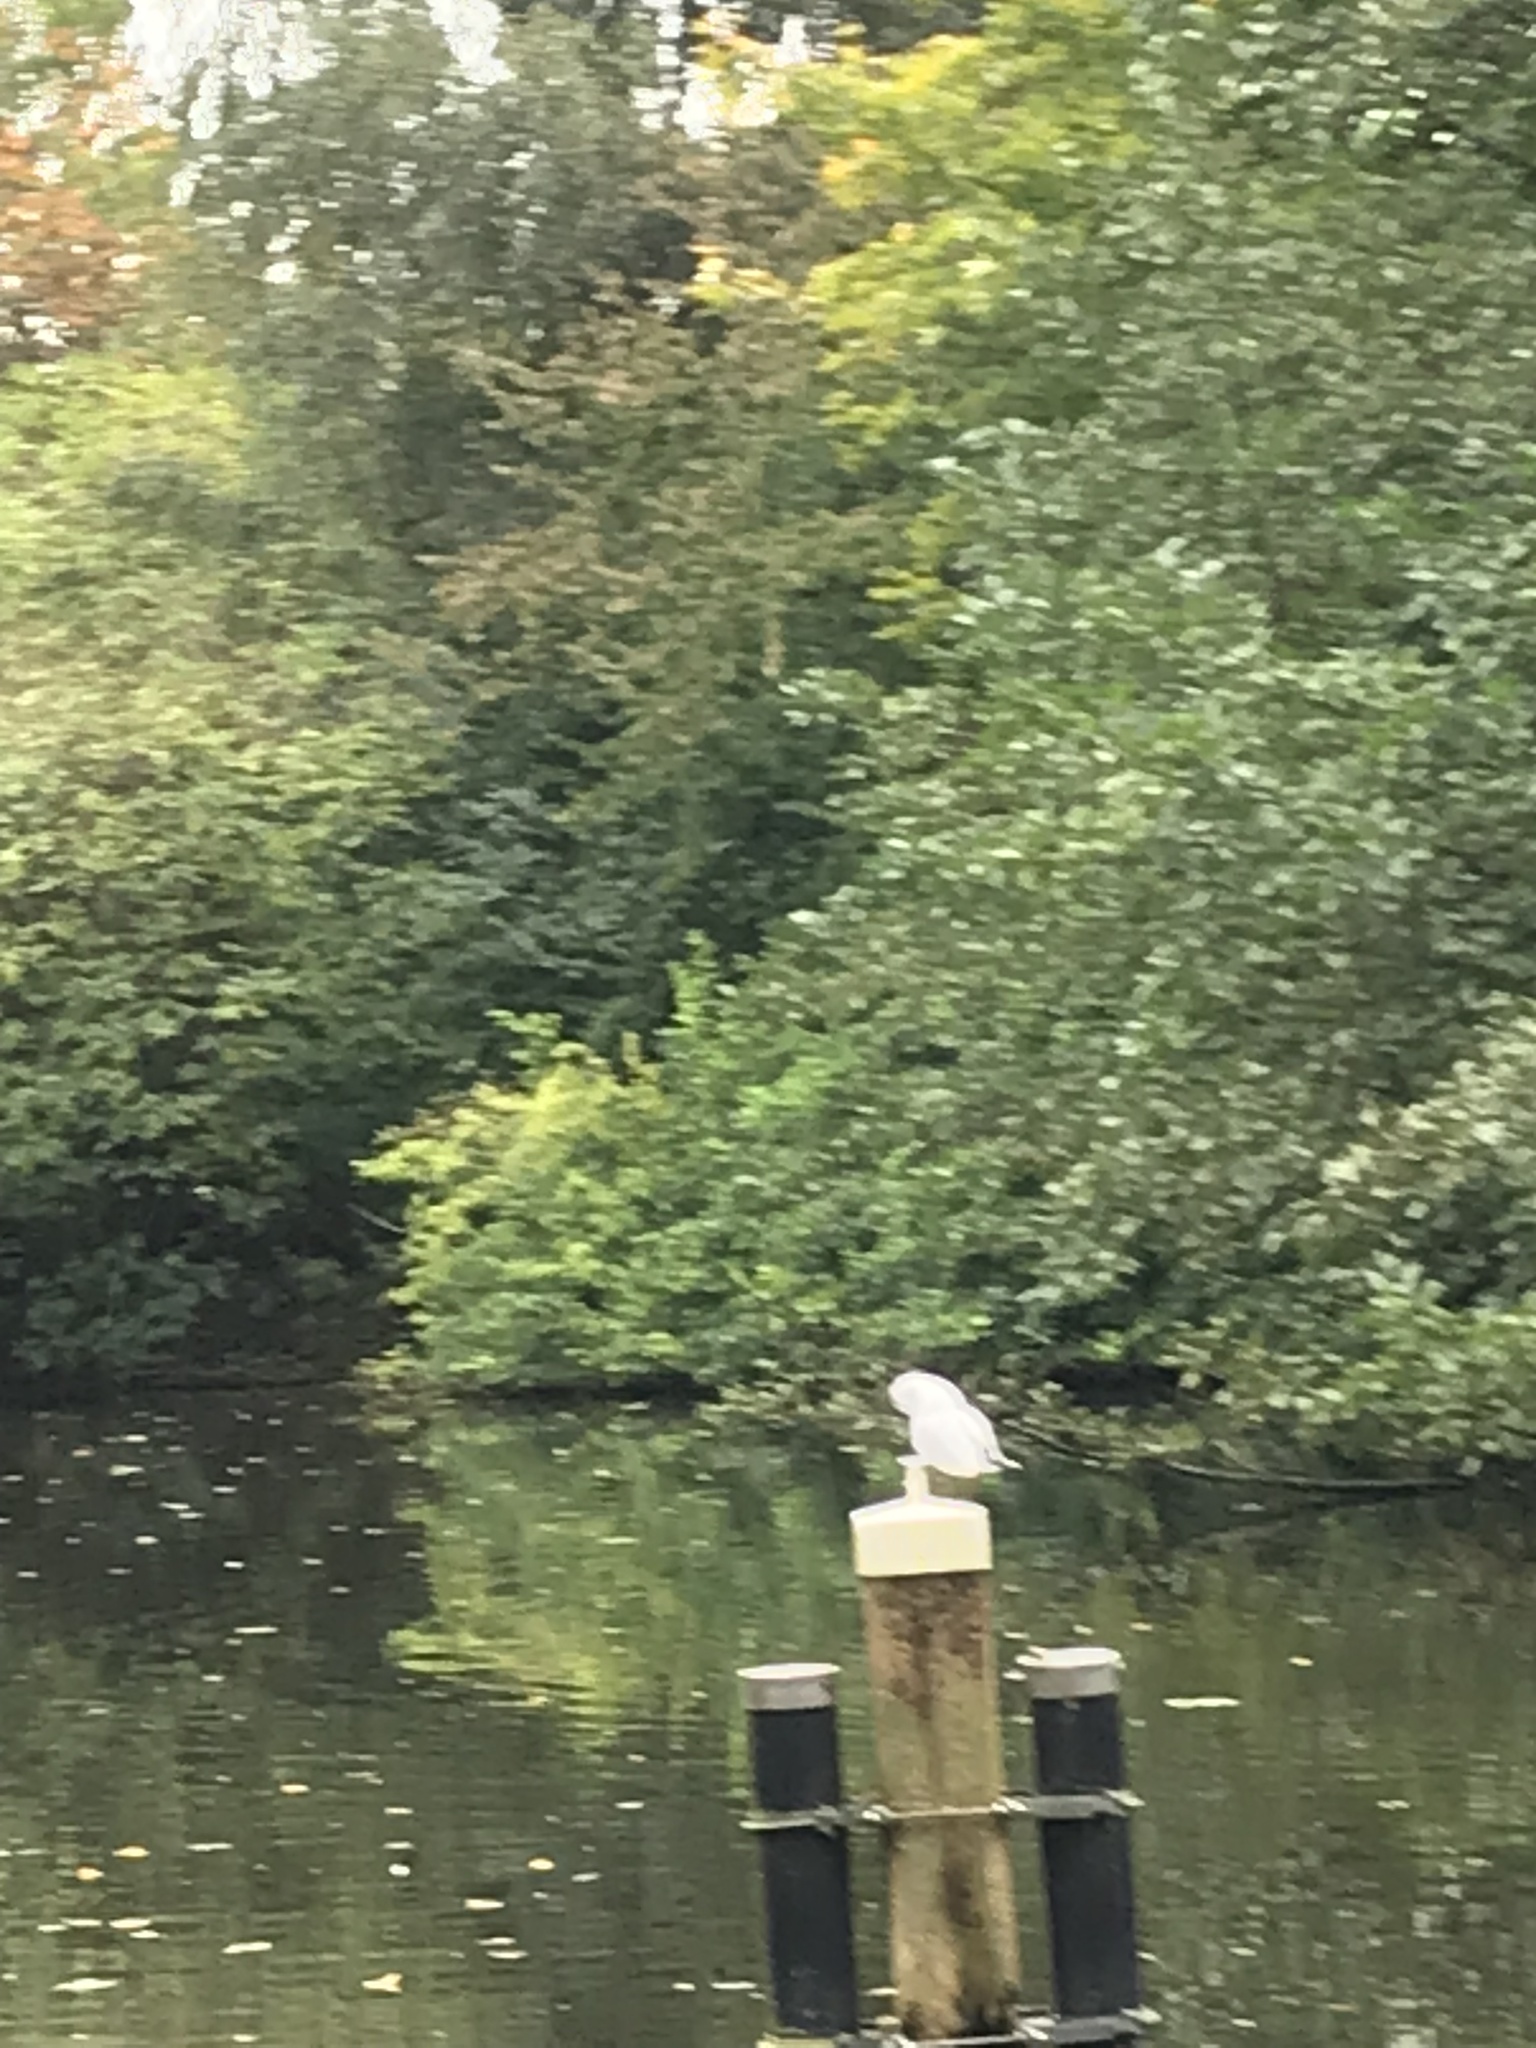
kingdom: Animalia
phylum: Chordata
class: Aves
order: Charadriiformes
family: Laridae
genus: Chroicocephalus
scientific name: Chroicocephalus ridibundus
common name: Black-headed gull
